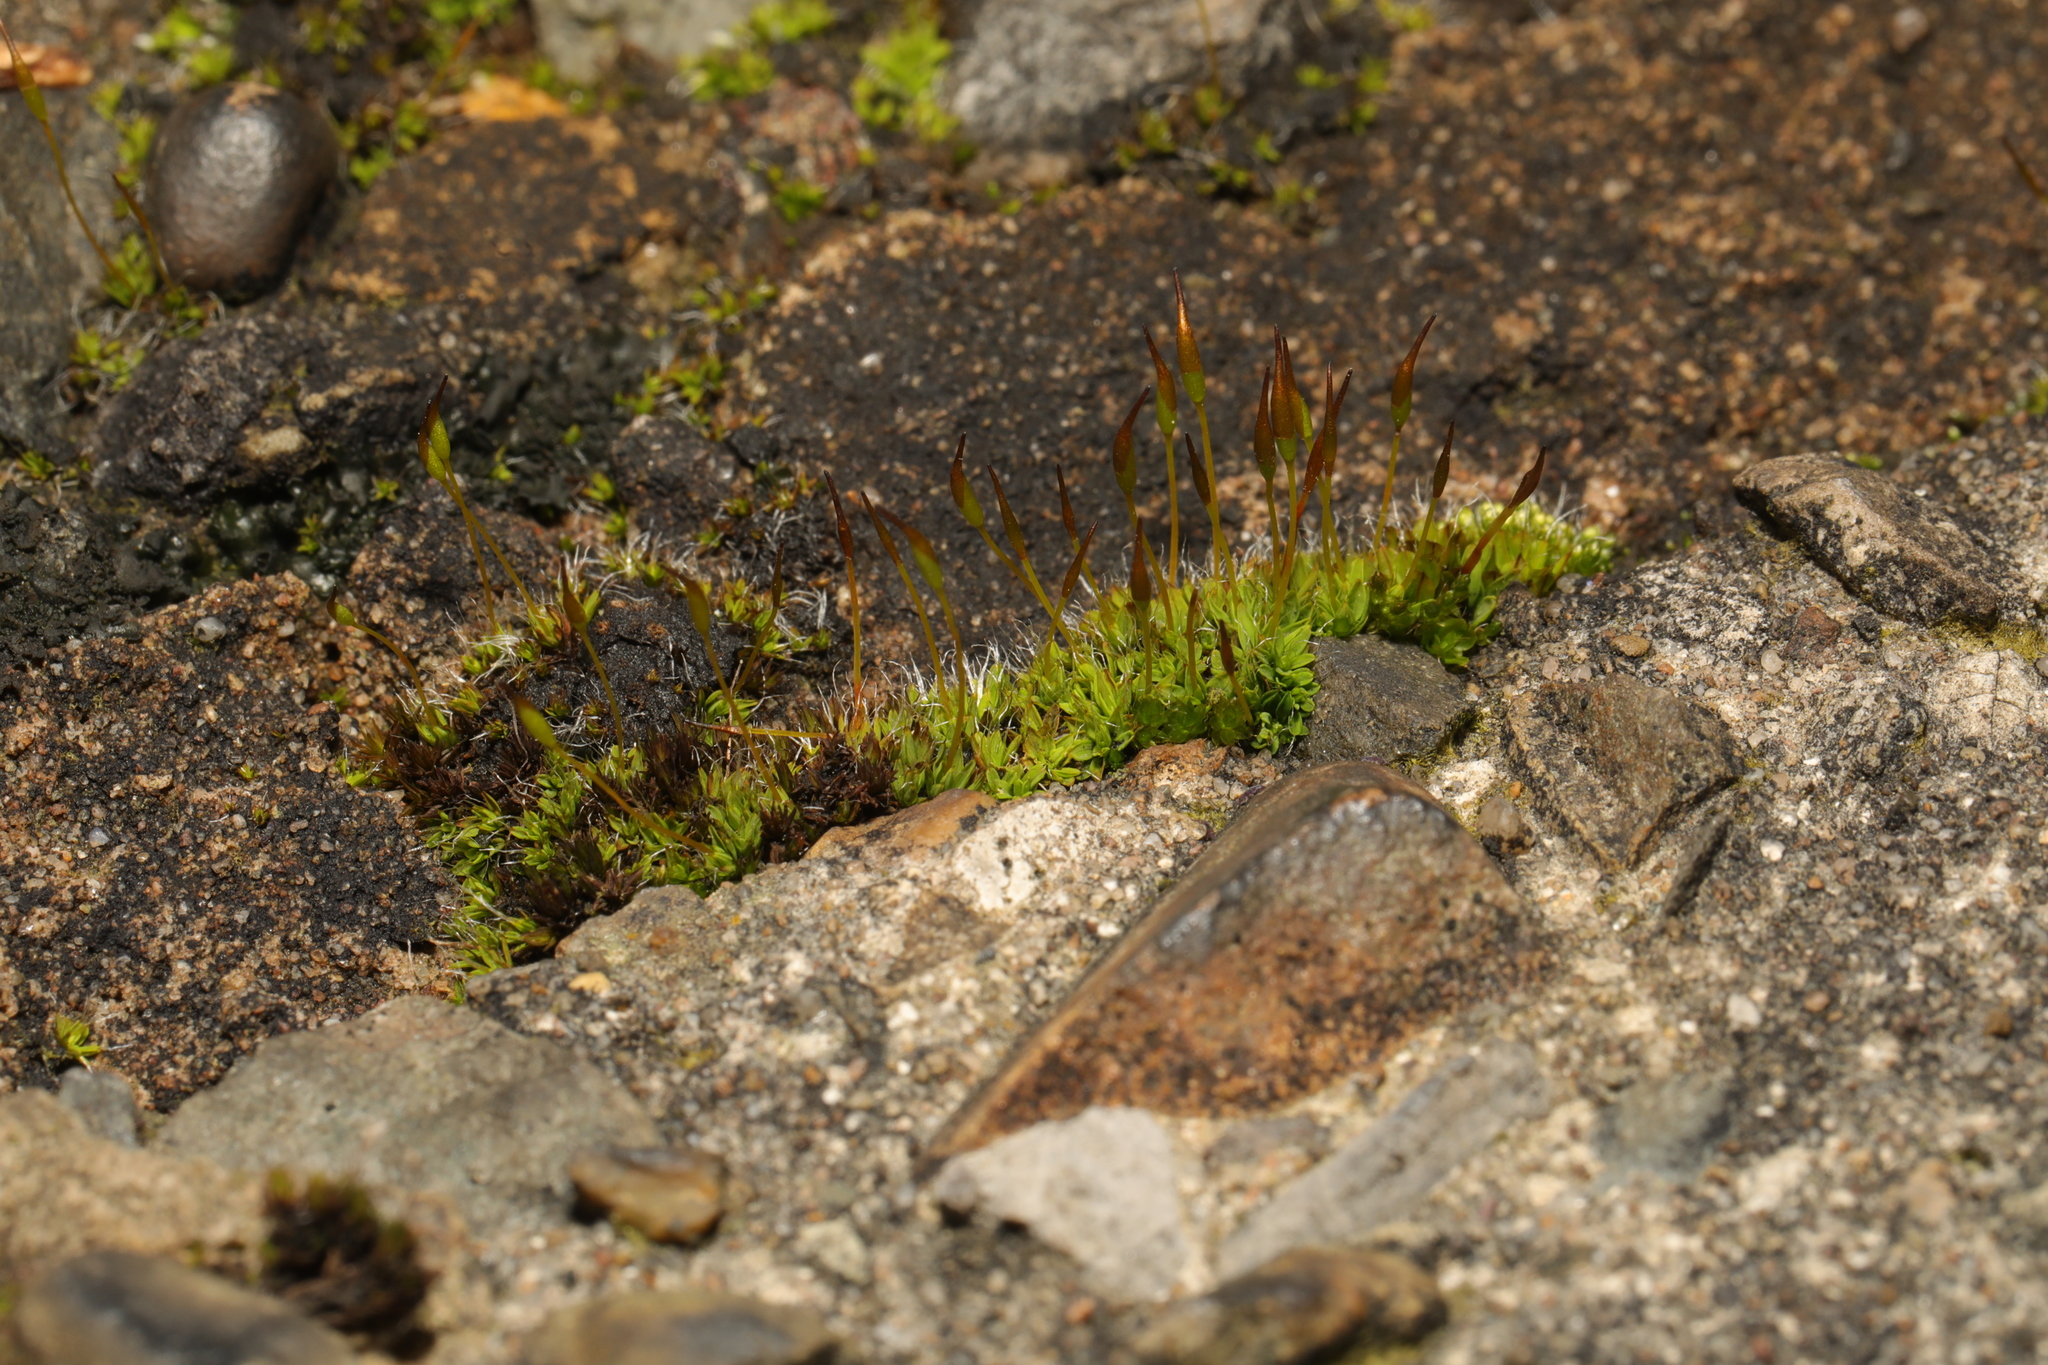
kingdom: Plantae
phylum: Bryophyta
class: Bryopsida
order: Pottiales
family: Pottiaceae
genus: Tortula
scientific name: Tortula muralis
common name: Wall screw-moss
